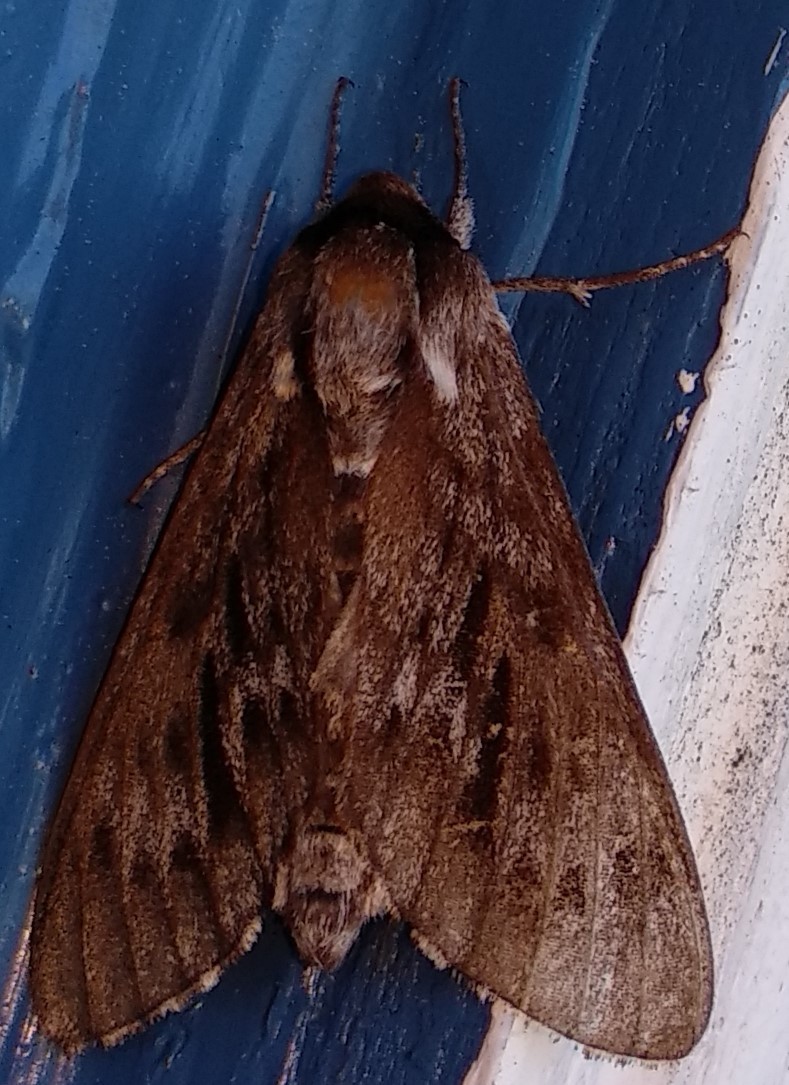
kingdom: Animalia
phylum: Arthropoda
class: Insecta
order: Lepidoptera
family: Sphingidae
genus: Lapara
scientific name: Lapara bombycoides
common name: Northern pine sphinx
